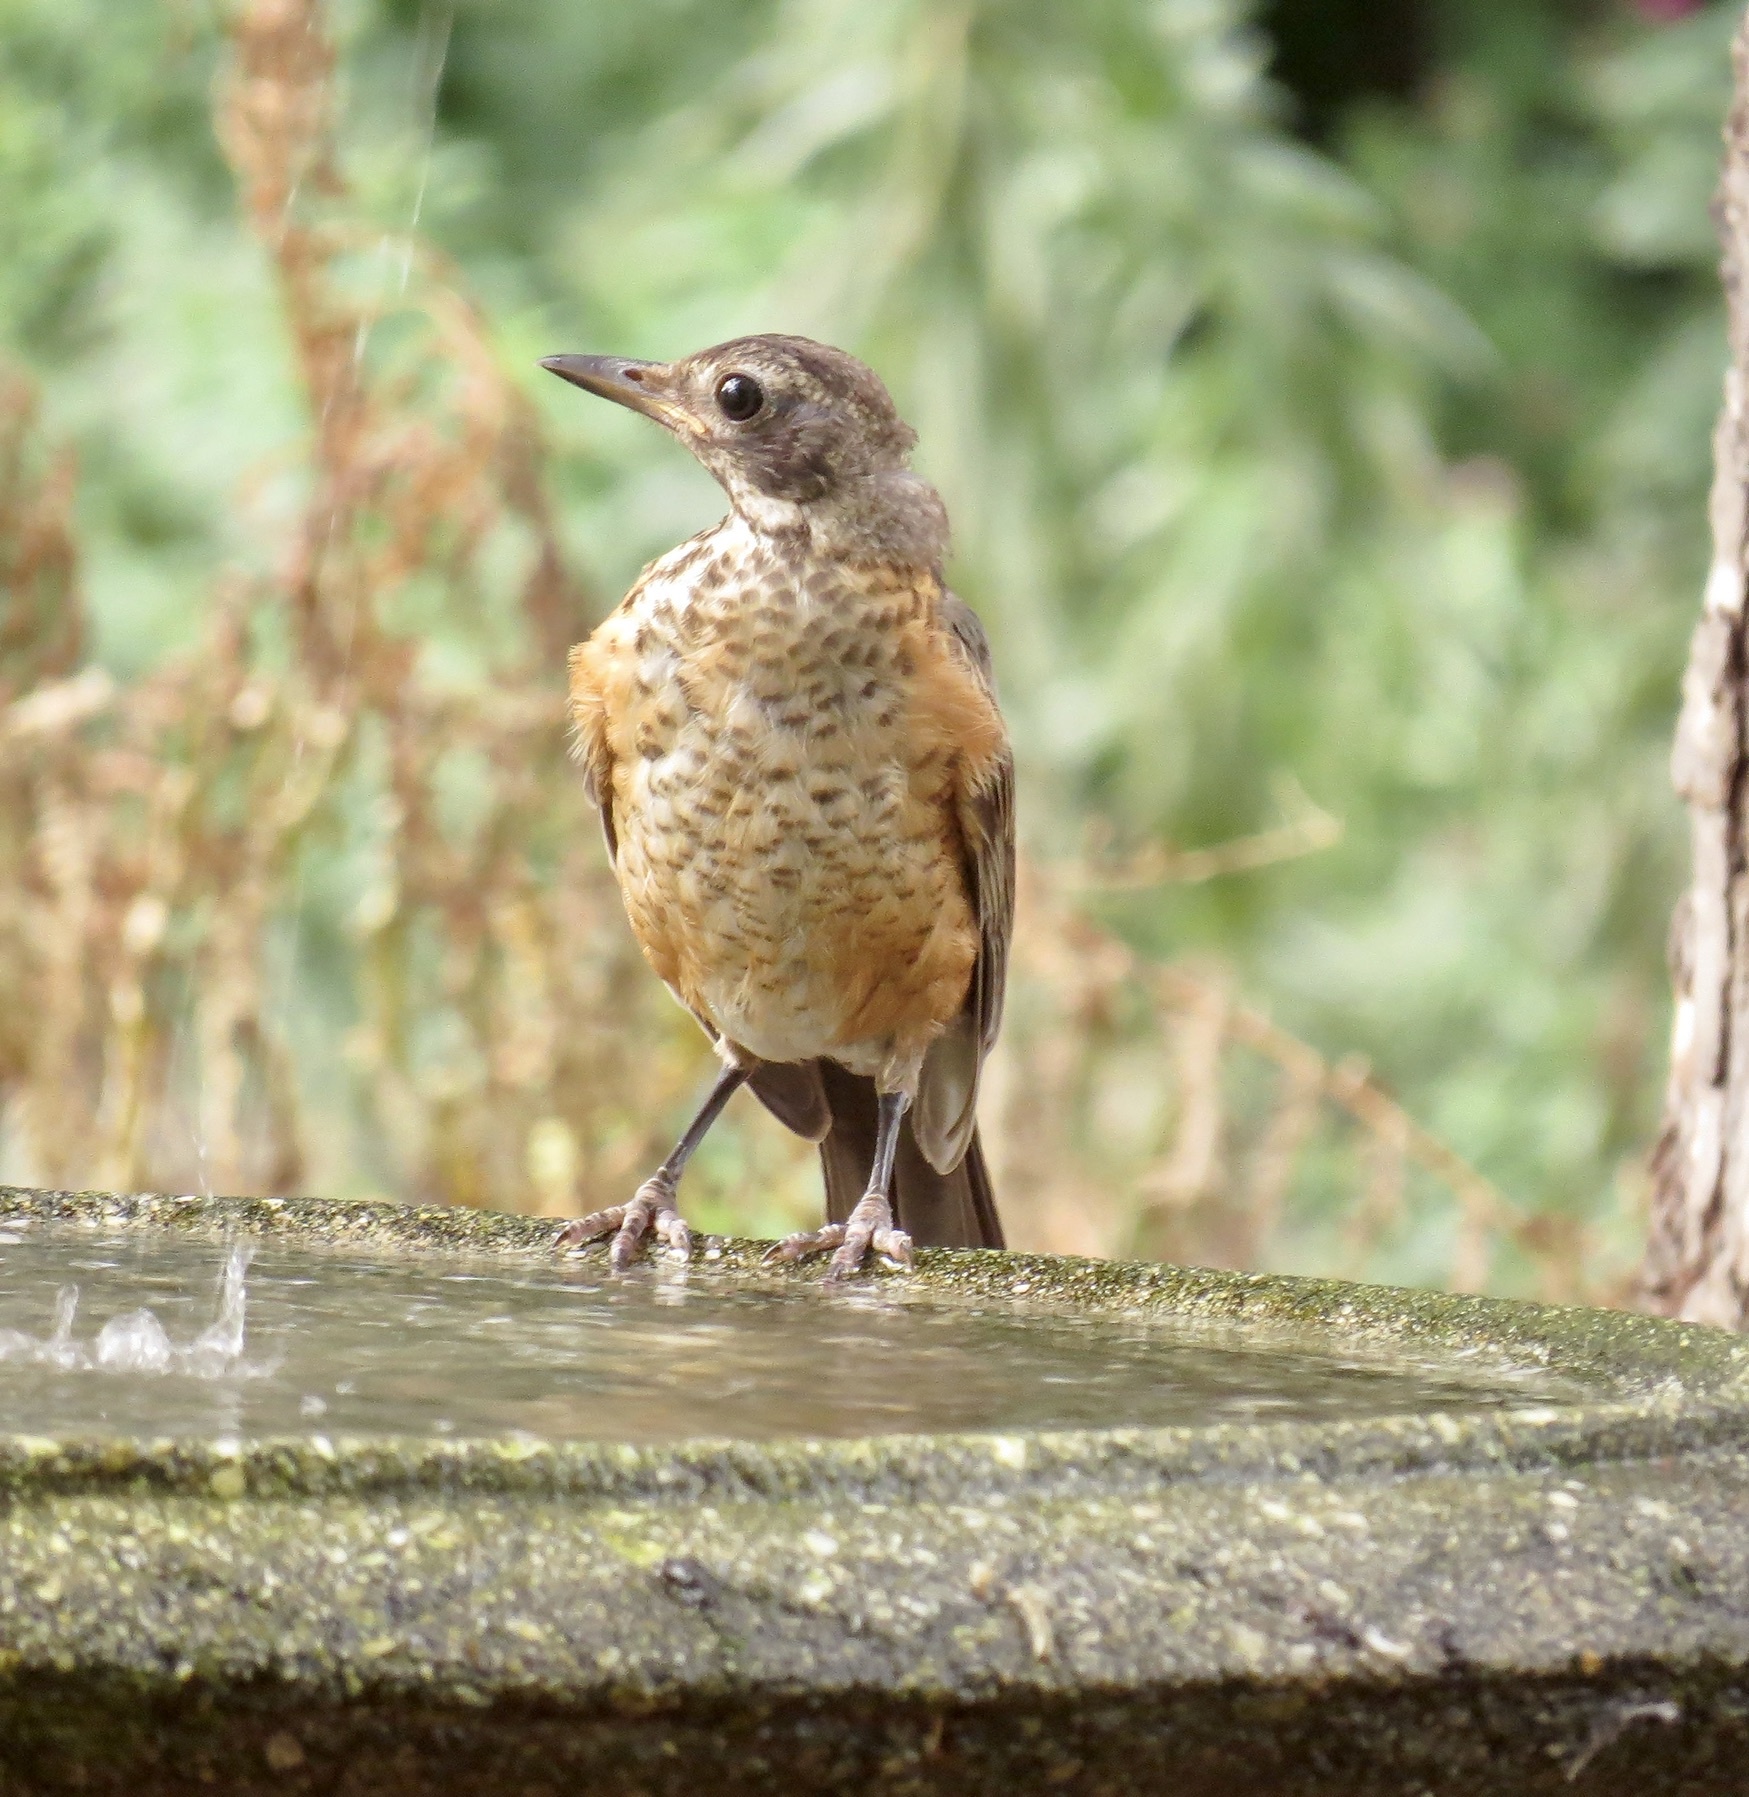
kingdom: Animalia
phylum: Chordata
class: Aves
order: Passeriformes
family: Turdidae
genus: Turdus
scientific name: Turdus migratorius
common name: American robin
